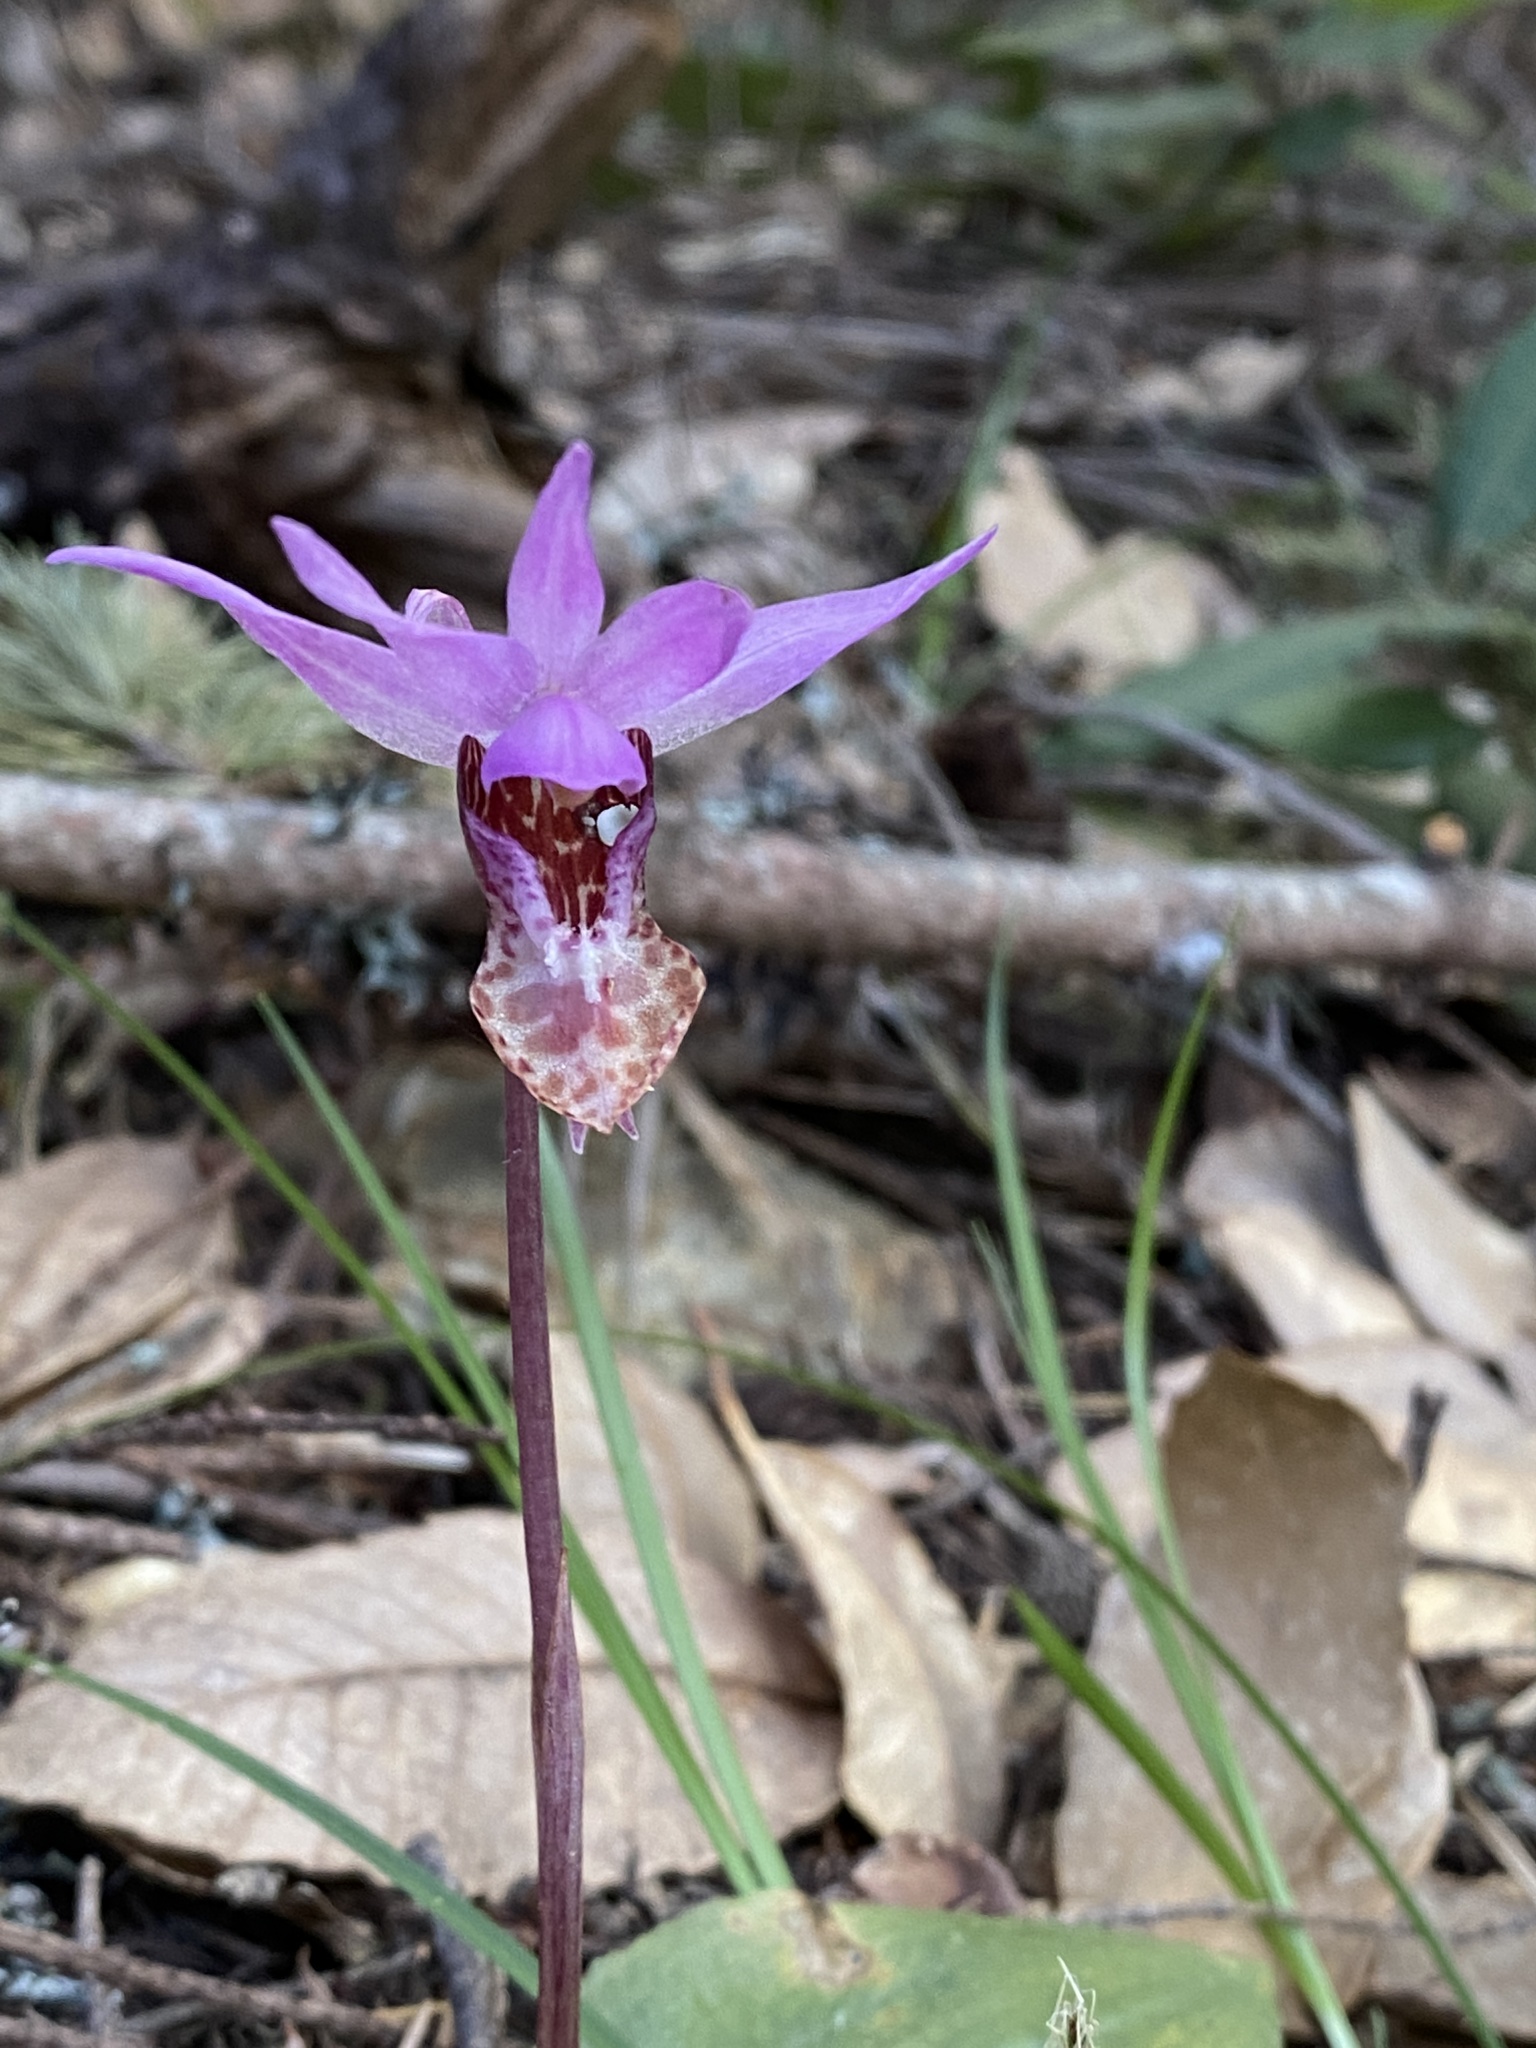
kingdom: Plantae
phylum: Tracheophyta
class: Liliopsida
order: Asparagales
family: Orchidaceae
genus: Calypso
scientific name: Calypso bulbosa
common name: Calypso
